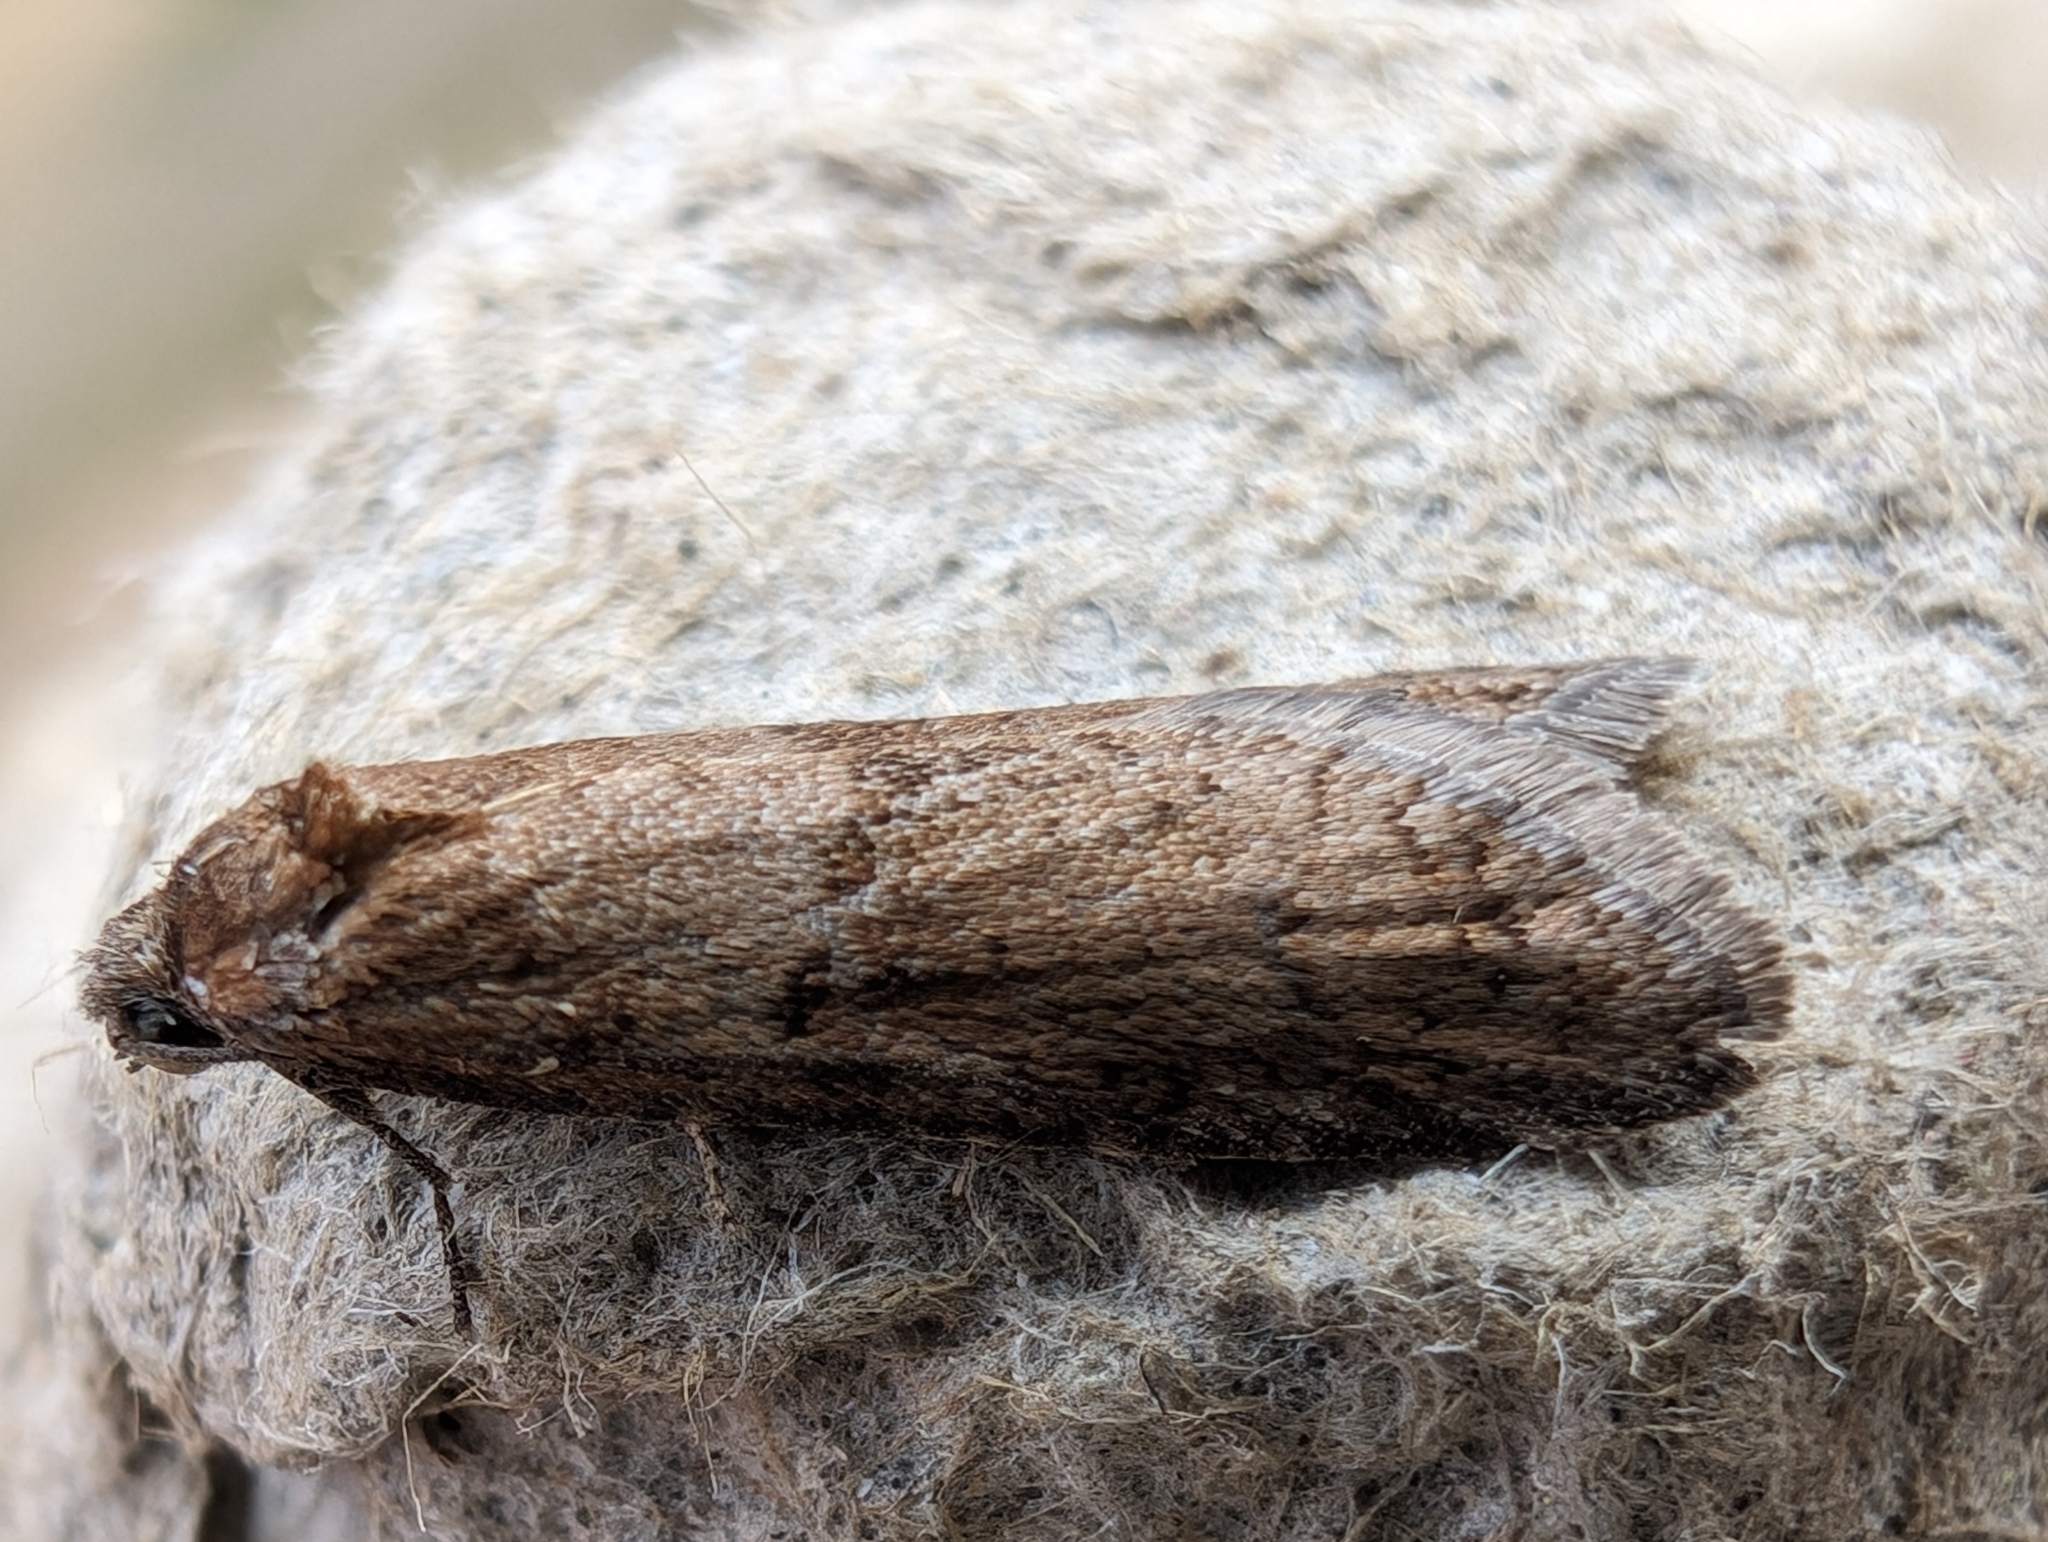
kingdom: Animalia
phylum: Arthropoda
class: Insecta
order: Lepidoptera
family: Tortricidae
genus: Tortricodes
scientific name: Tortricodes alternella
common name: Winter shade
